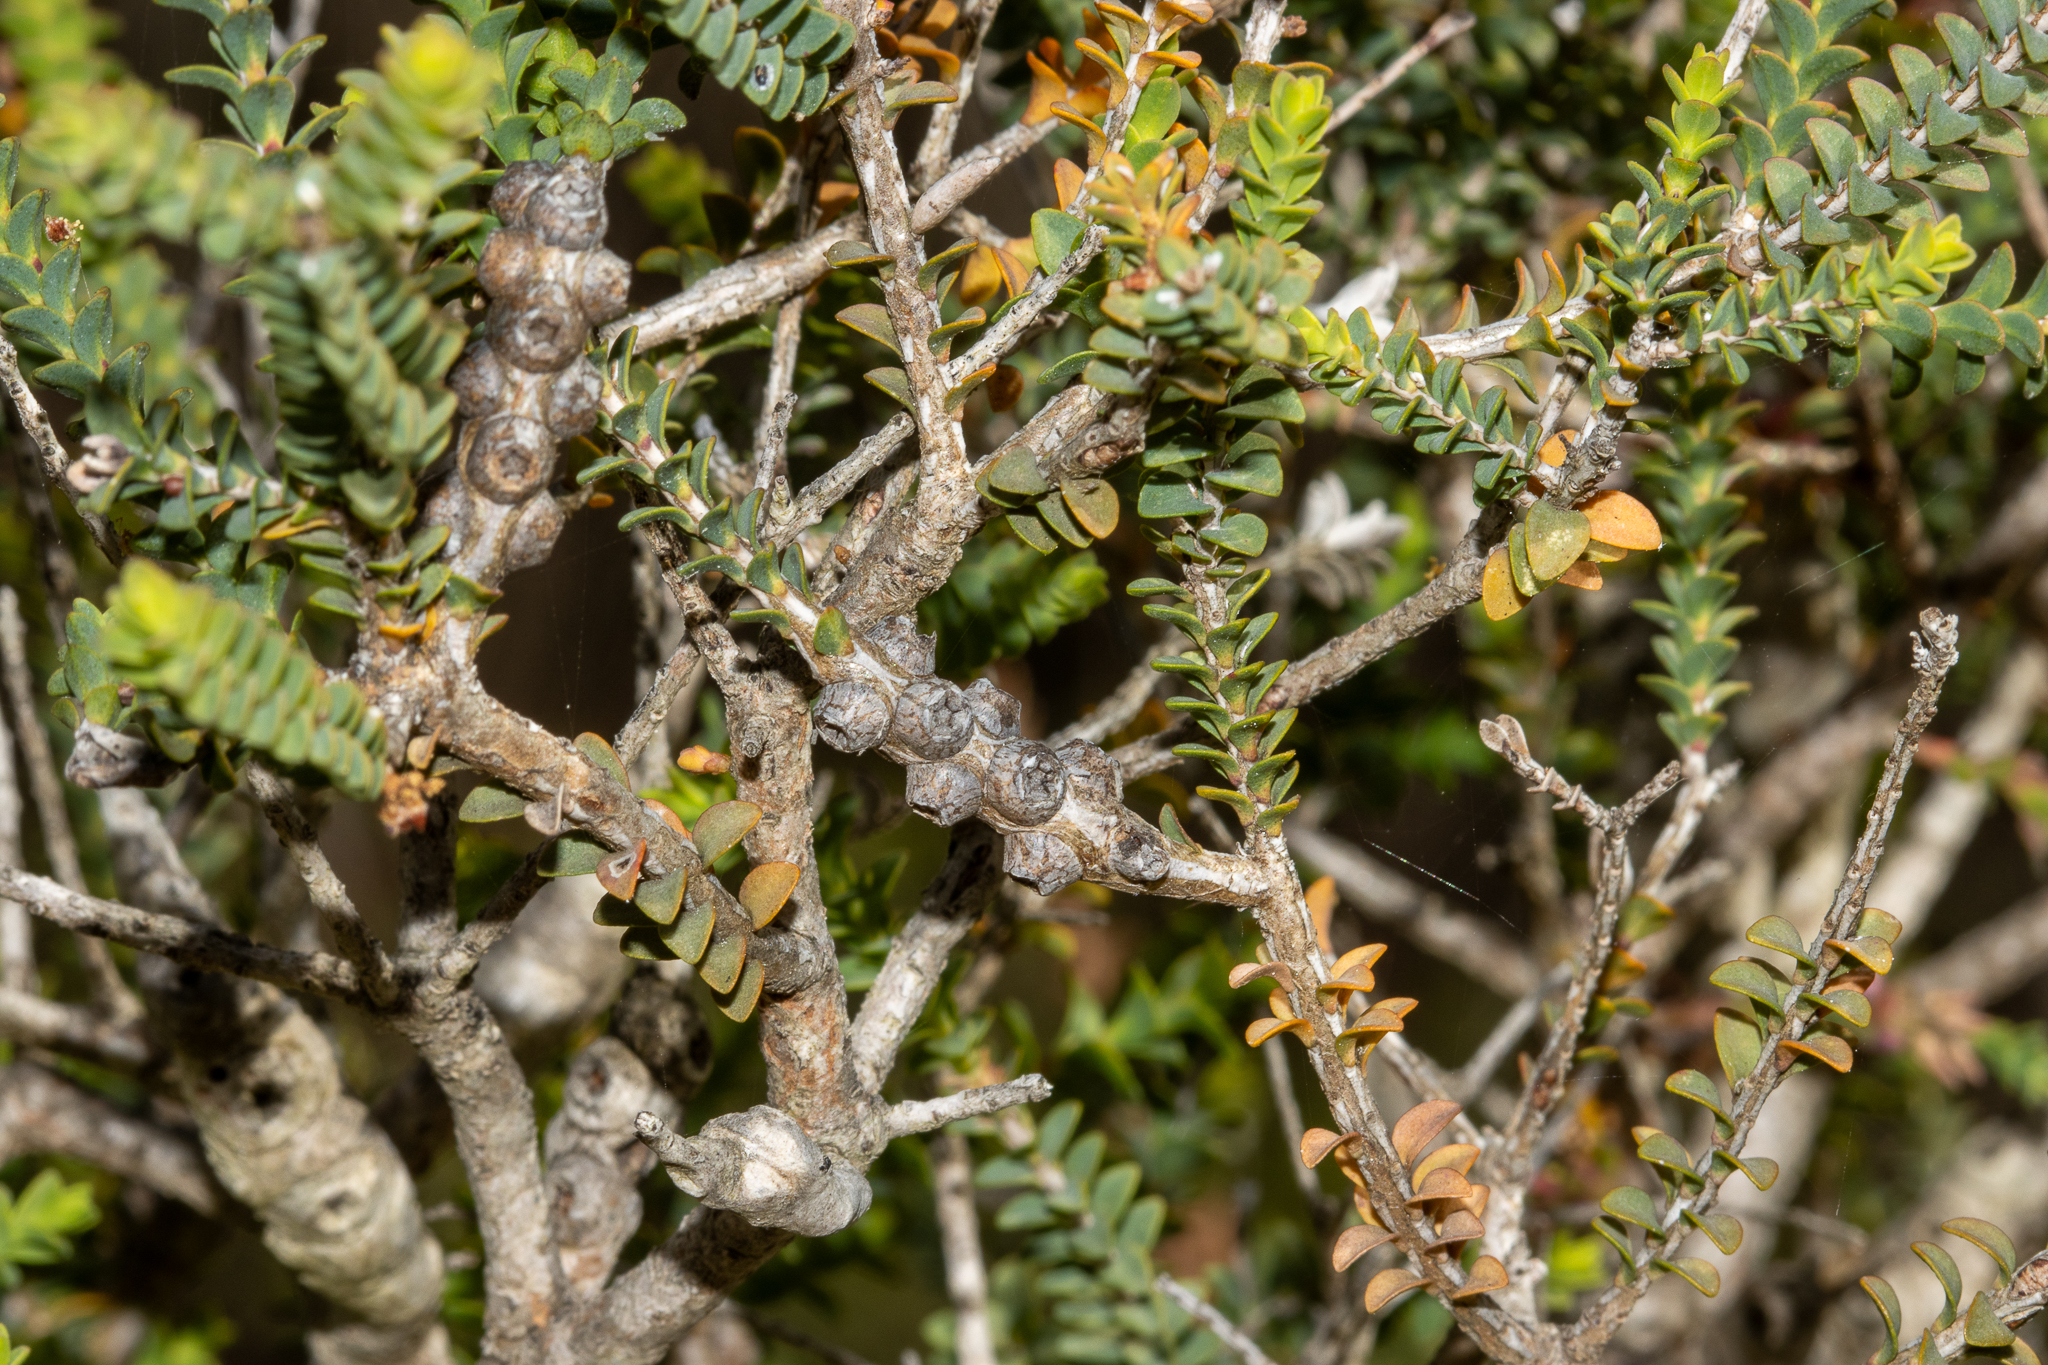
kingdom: Plantae
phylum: Tracheophyta
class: Magnoliopsida
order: Myrtales
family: Myrtaceae
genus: Melaleuca
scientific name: Melaleuca gibbosa
